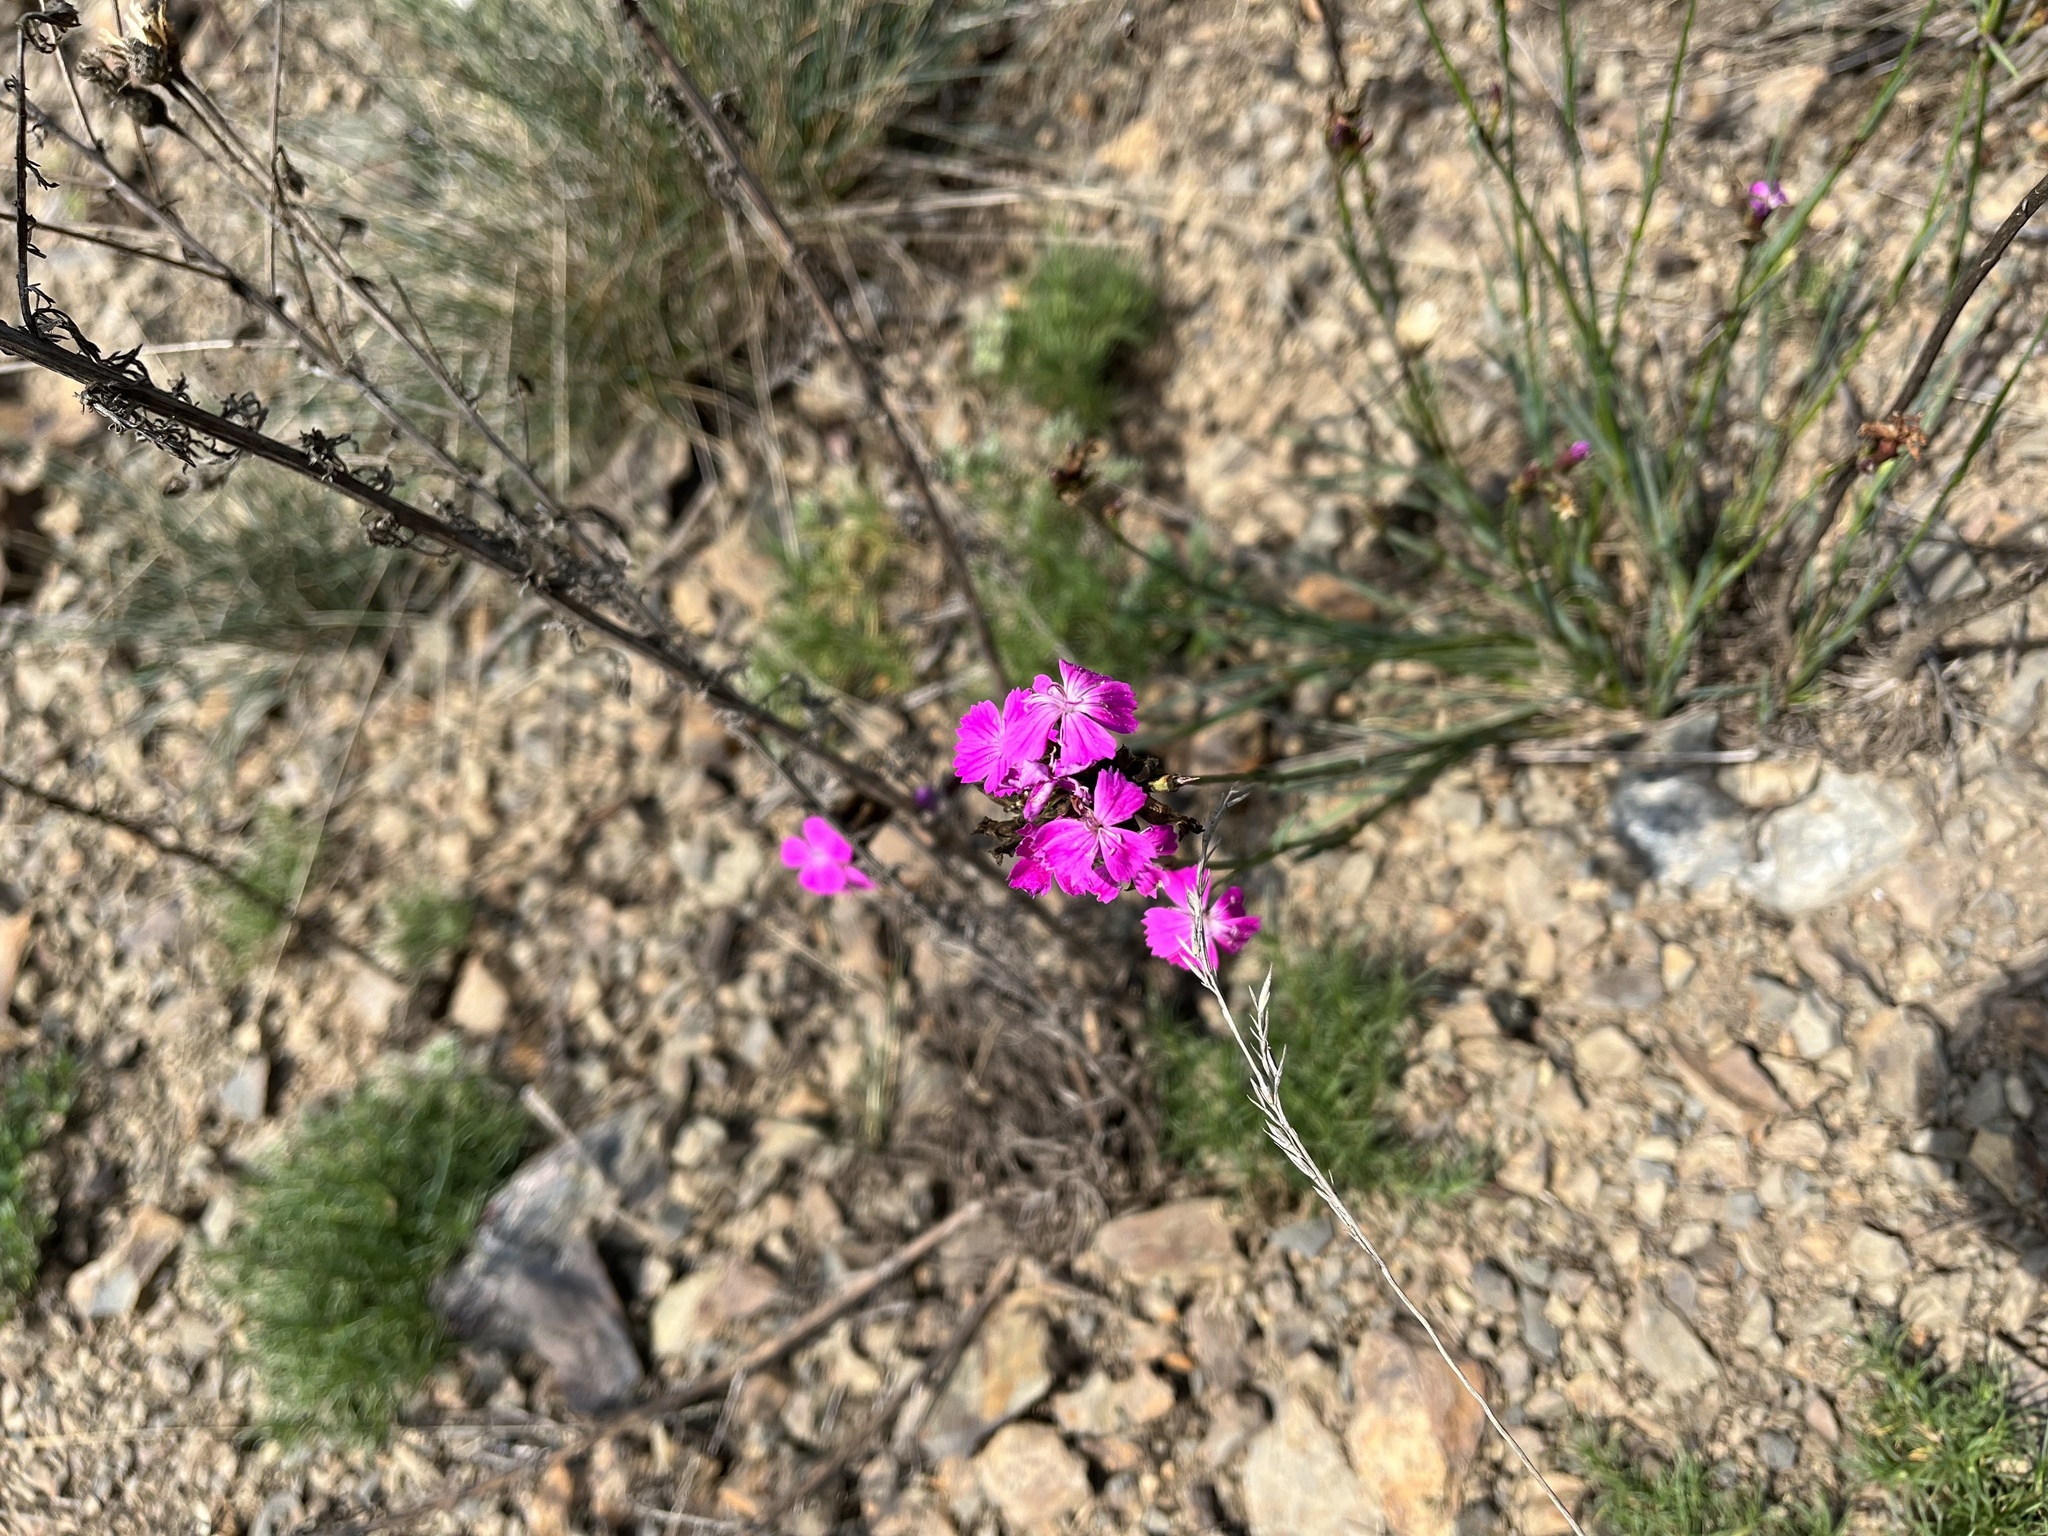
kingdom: Plantae
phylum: Tracheophyta
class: Magnoliopsida
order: Caryophyllales
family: Caryophyllaceae
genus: Dianthus
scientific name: Dianthus carthusianorum
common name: Carthusian pink
